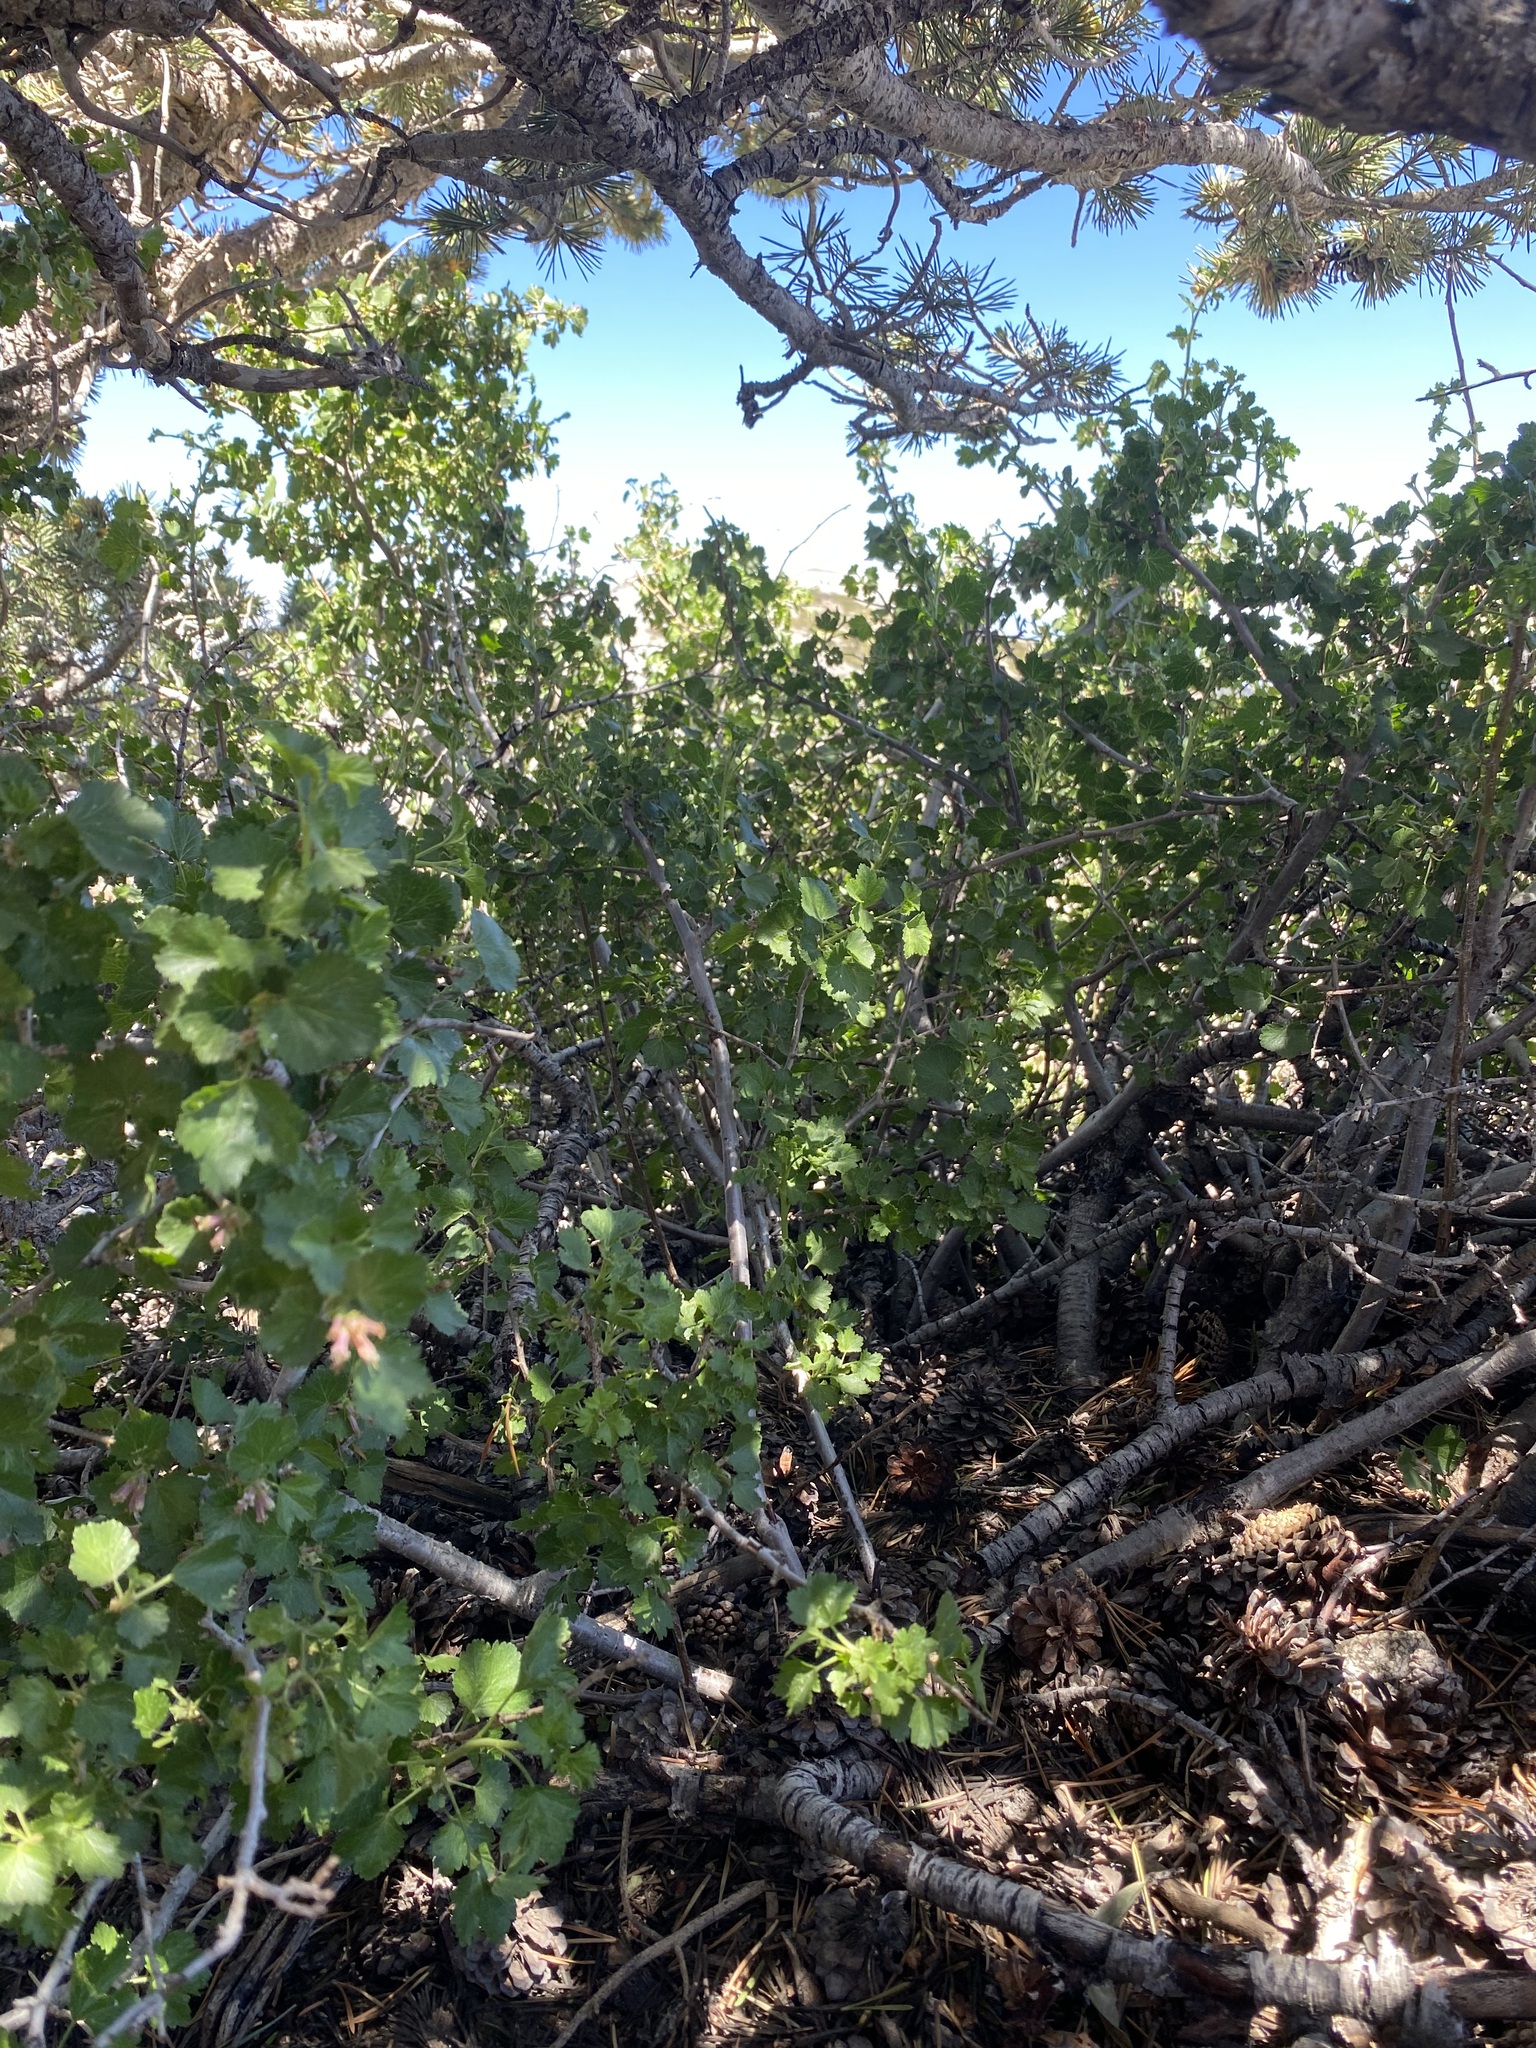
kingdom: Plantae
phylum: Tracheophyta
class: Magnoliopsida
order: Saxifragales
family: Grossulariaceae
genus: Ribes
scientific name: Ribes cereum
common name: Wax currant
